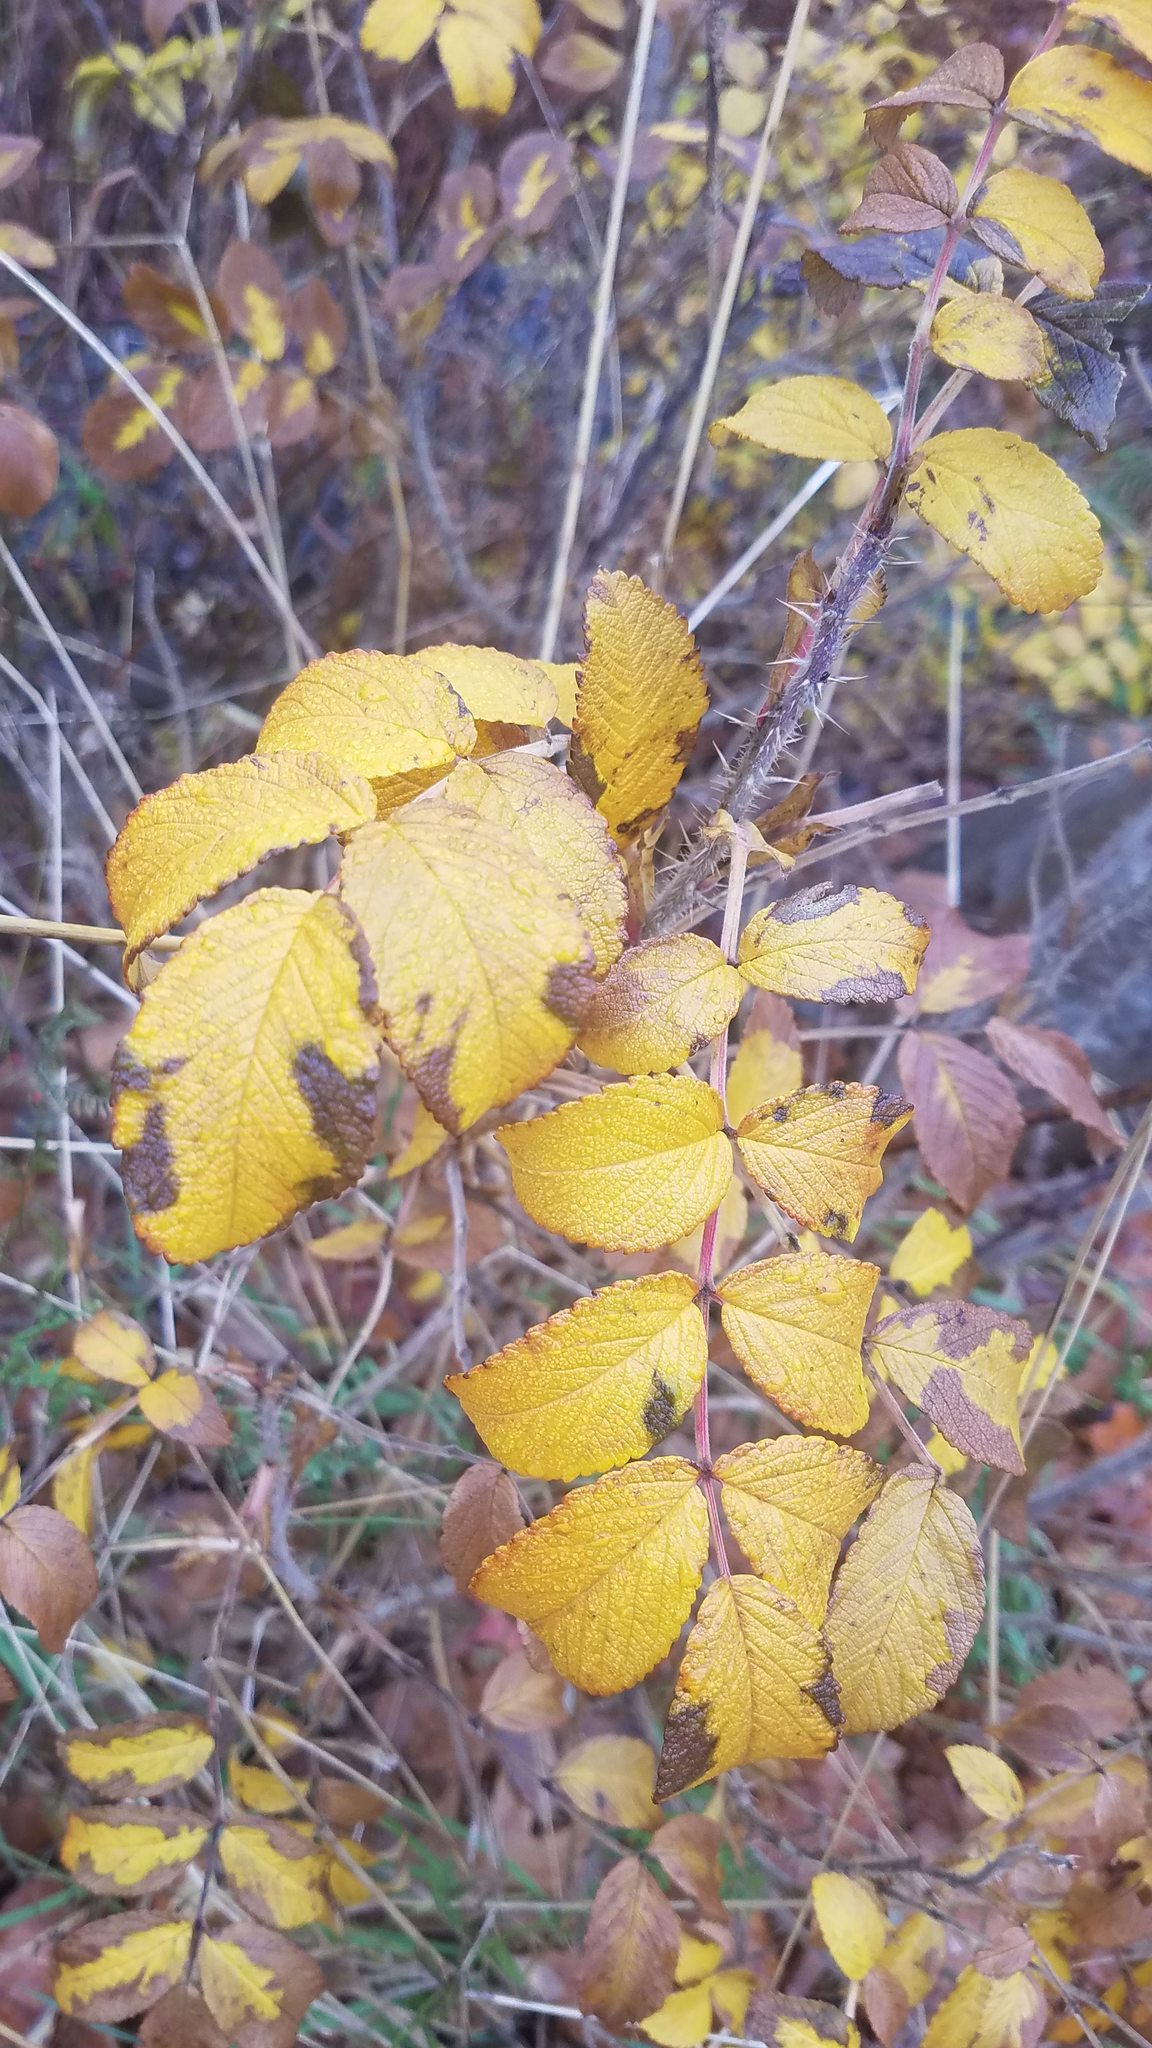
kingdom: Plantae
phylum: Tracheophyta
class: Magnoliopsida
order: Rosales
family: Rosaceae
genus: Rosa
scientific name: Rosa rugosa
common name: Japanese rose
